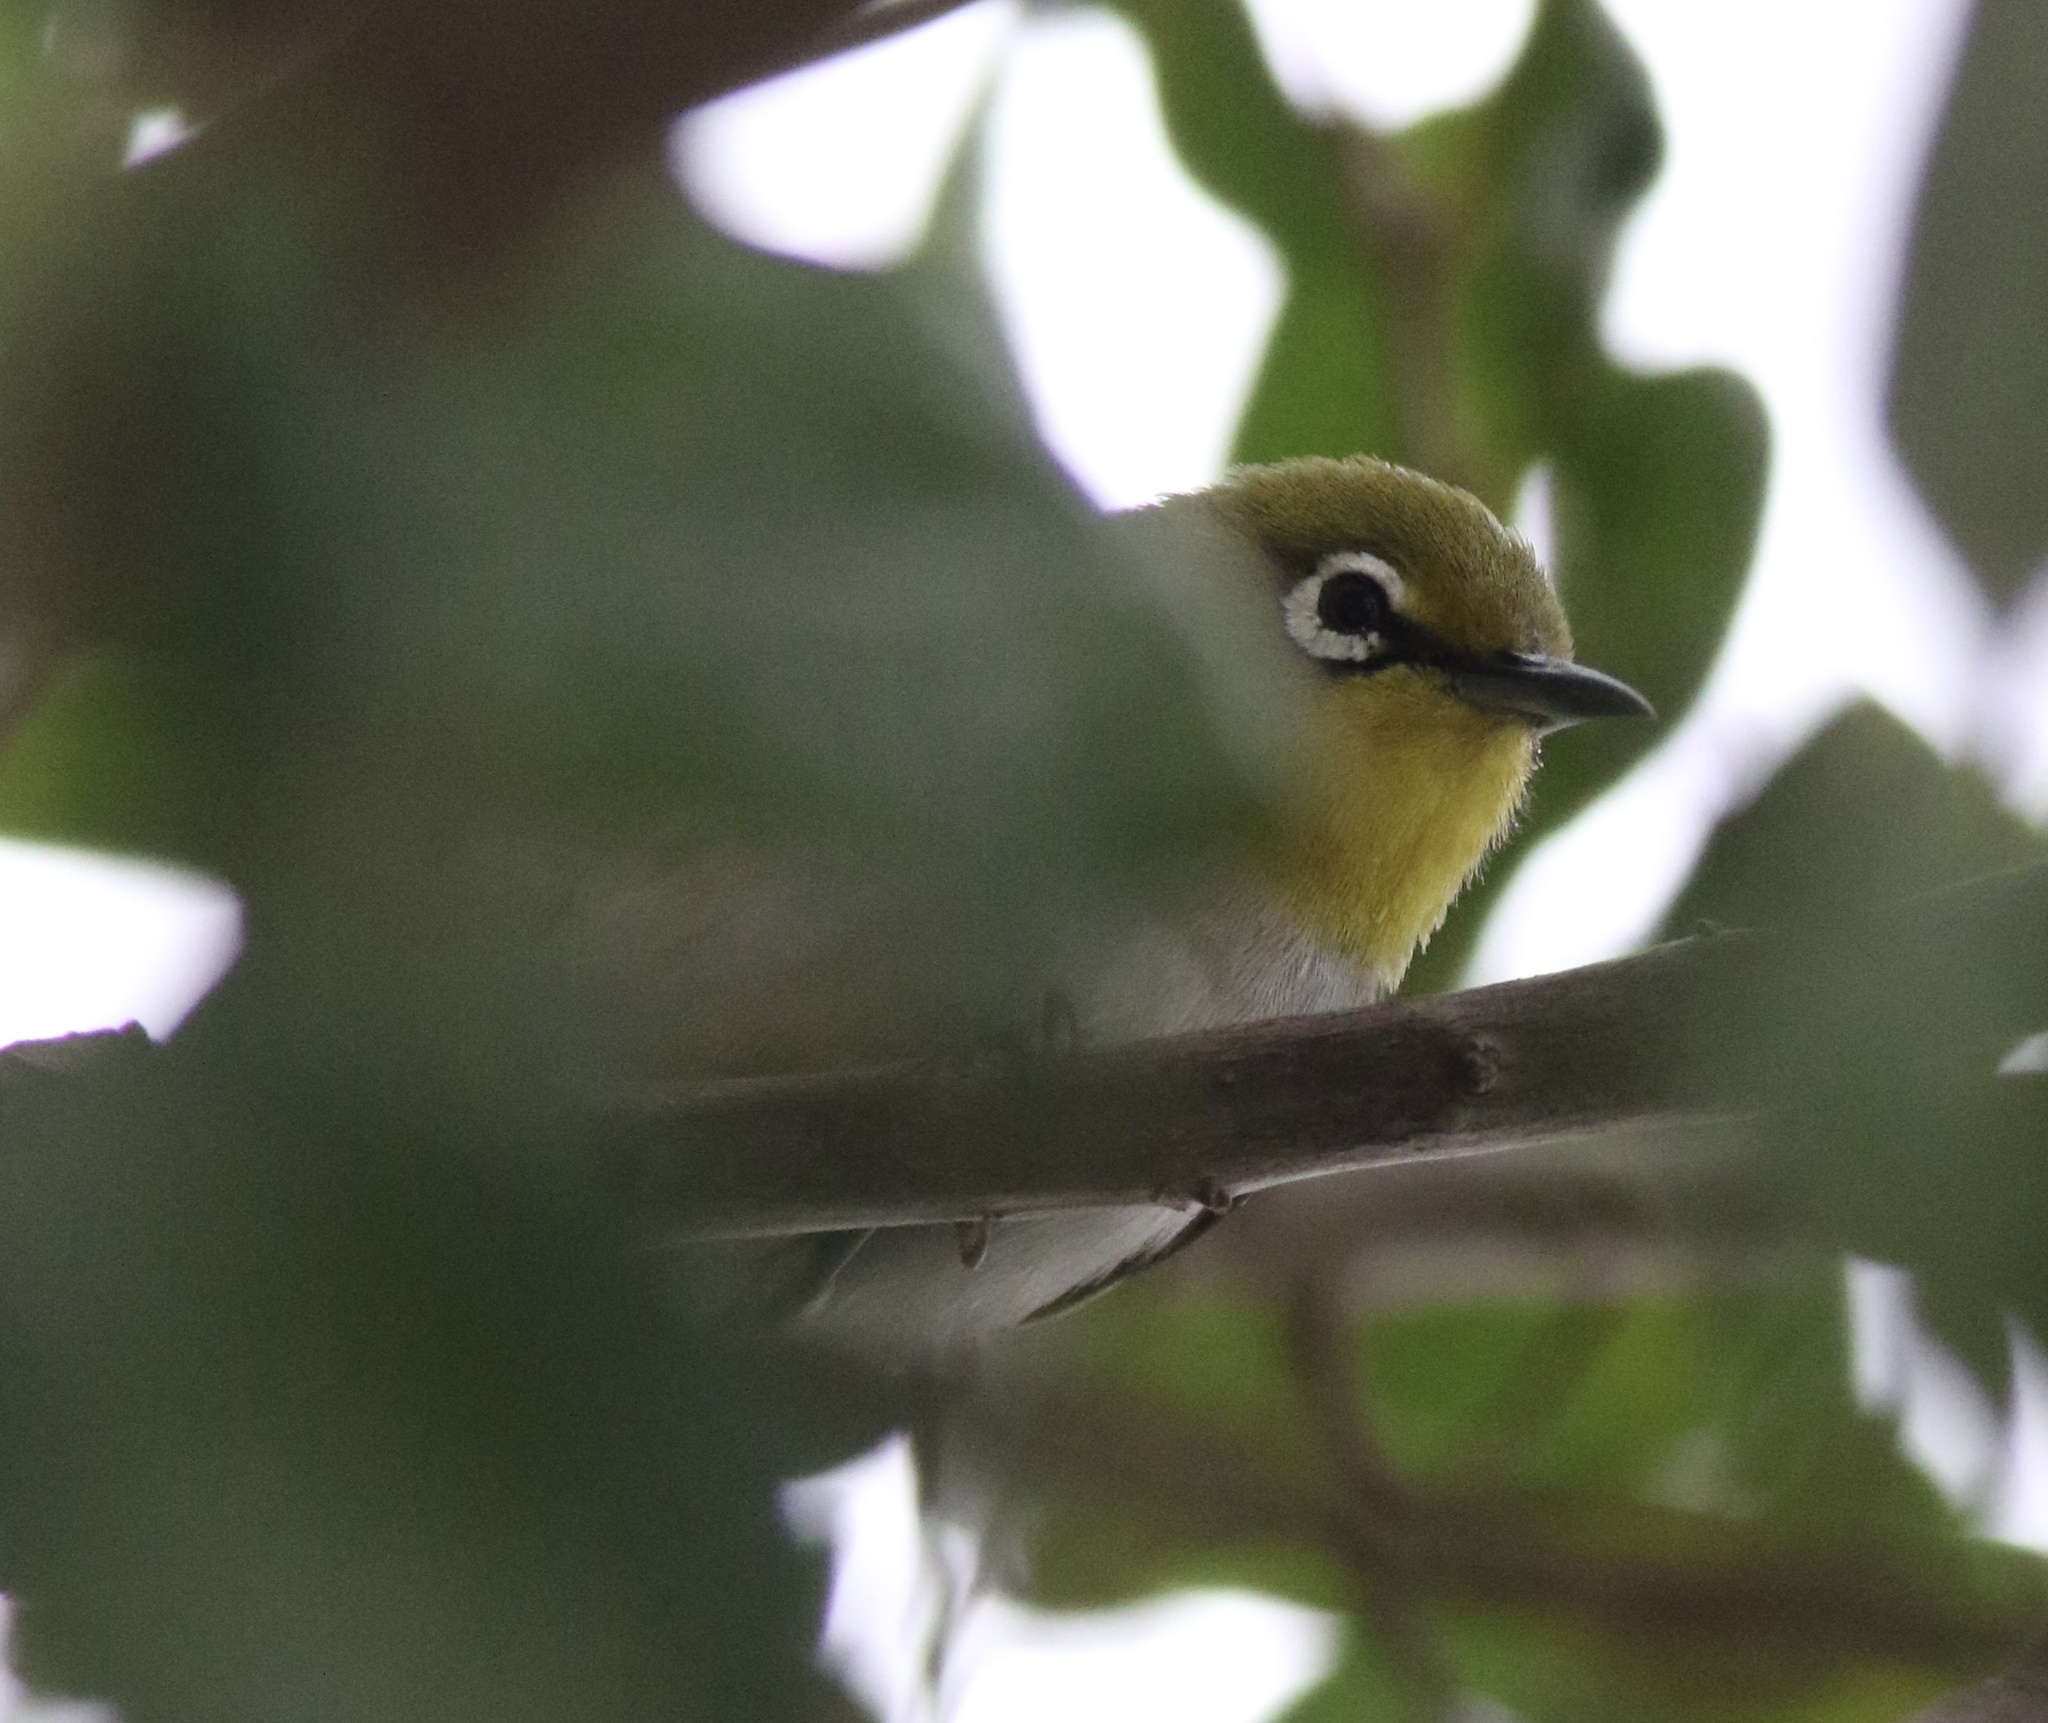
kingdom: Animalia
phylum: Chordata
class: Aves
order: Passeriformes
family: Zosteropidae
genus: Zosterops
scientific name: Zosterops simplex
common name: Swinhoe's white-eye
